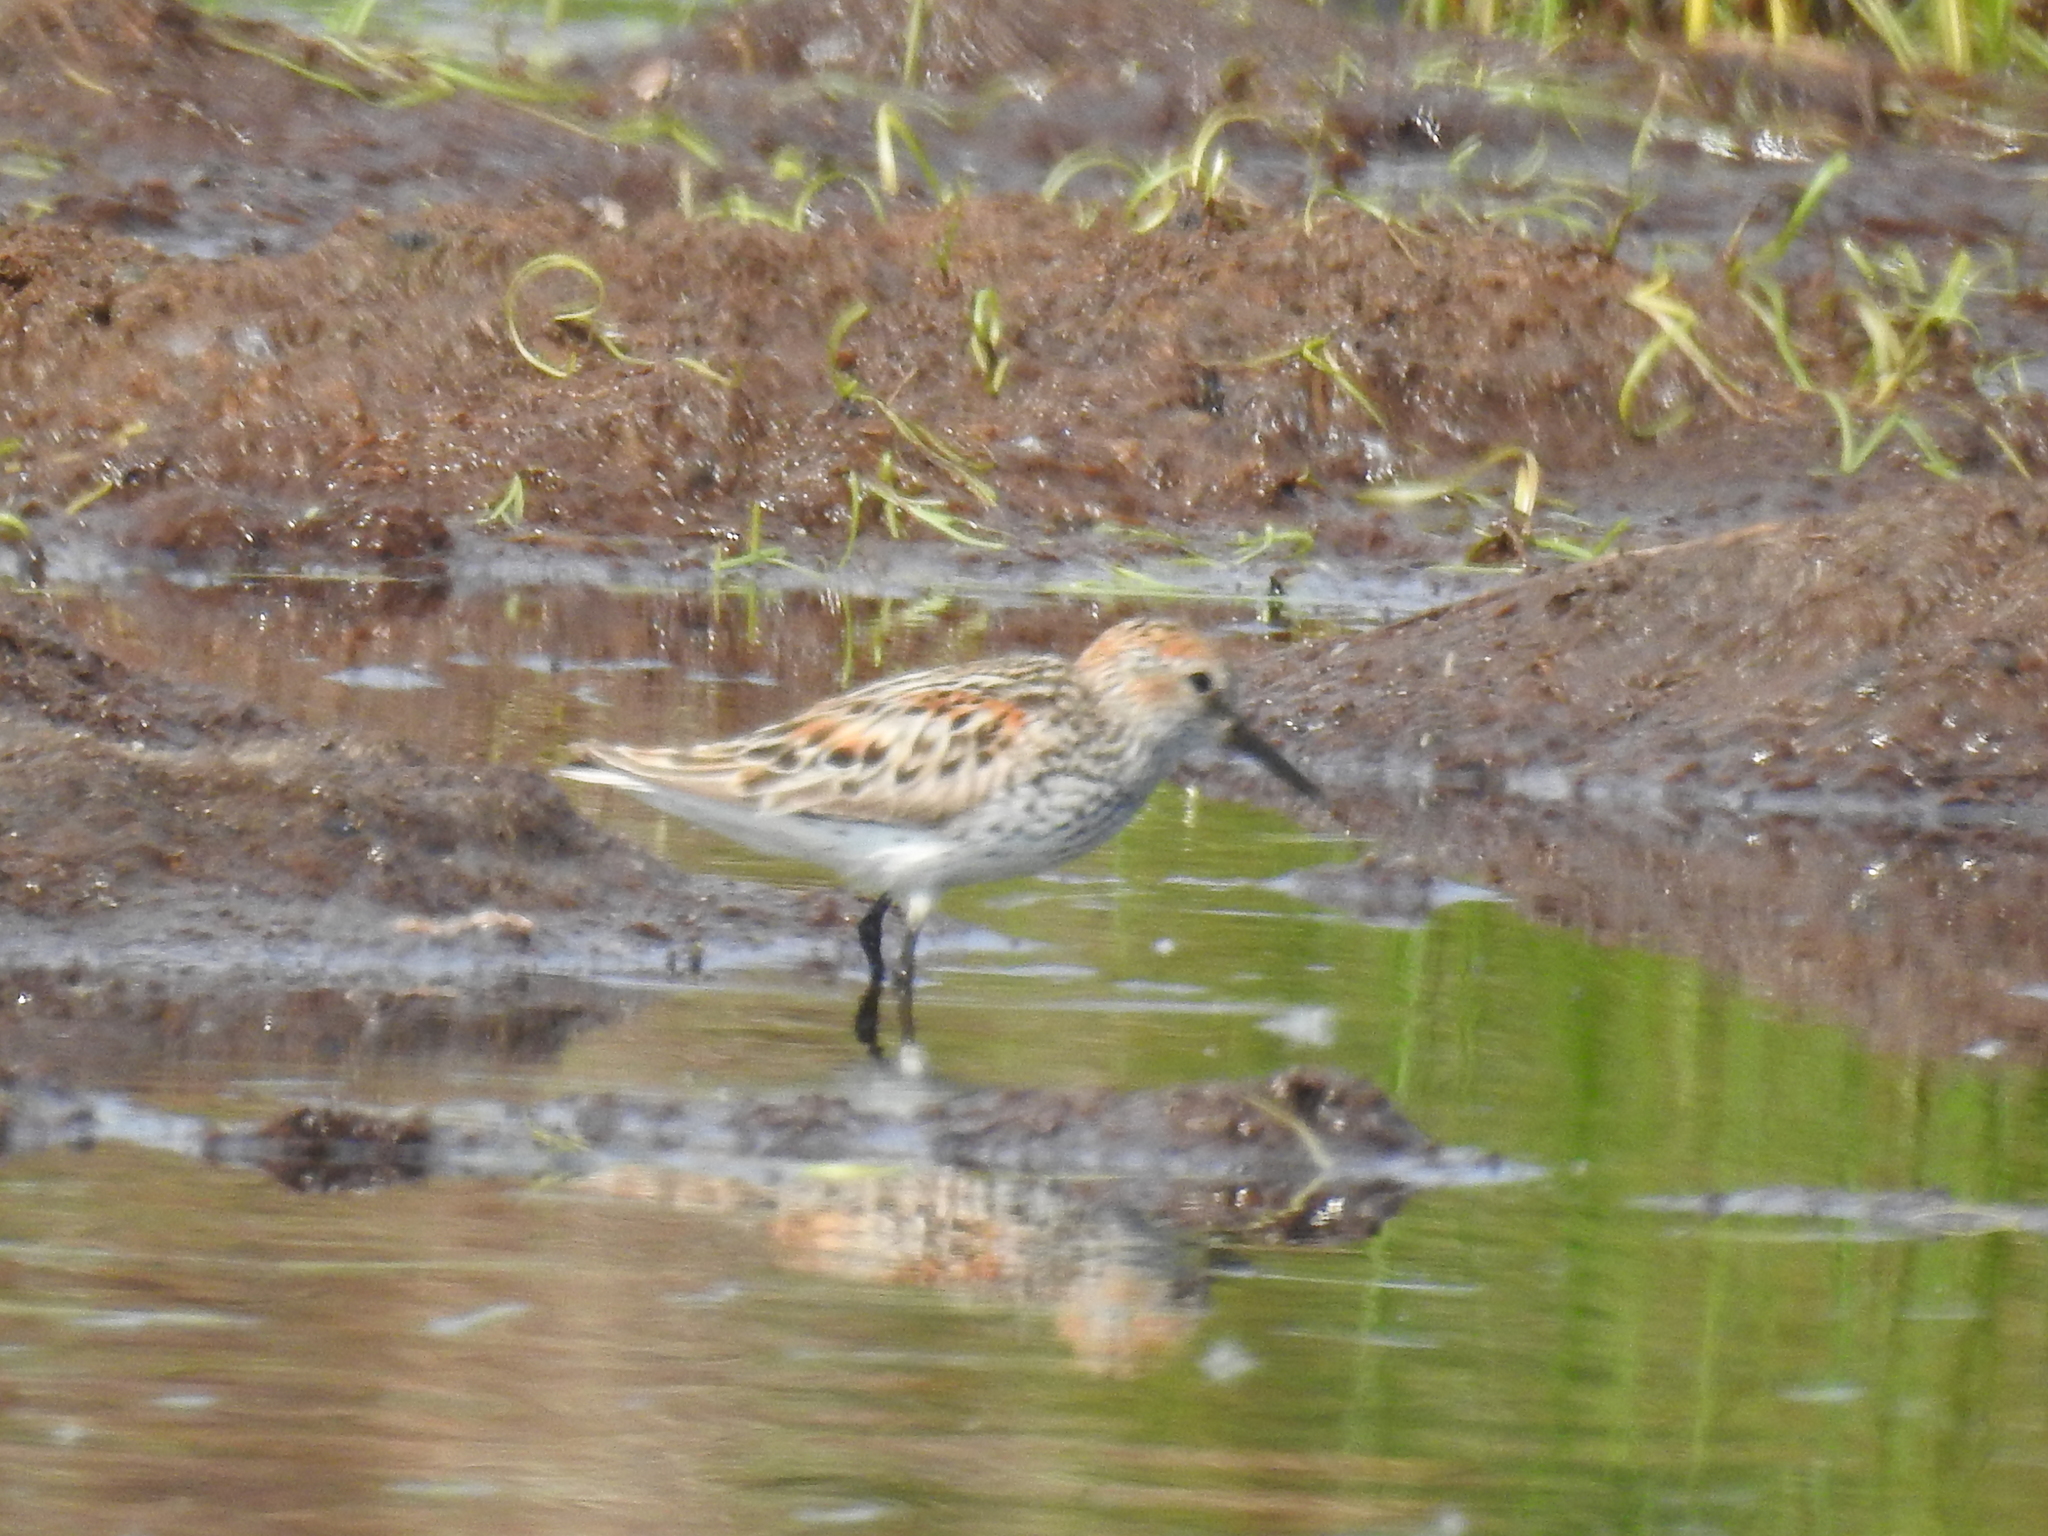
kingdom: Animalia
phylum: Chordata
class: Aves
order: Charadriiformes
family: Scolopacidae
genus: Calidris
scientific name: Calidris mauri
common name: Western sandpiper
